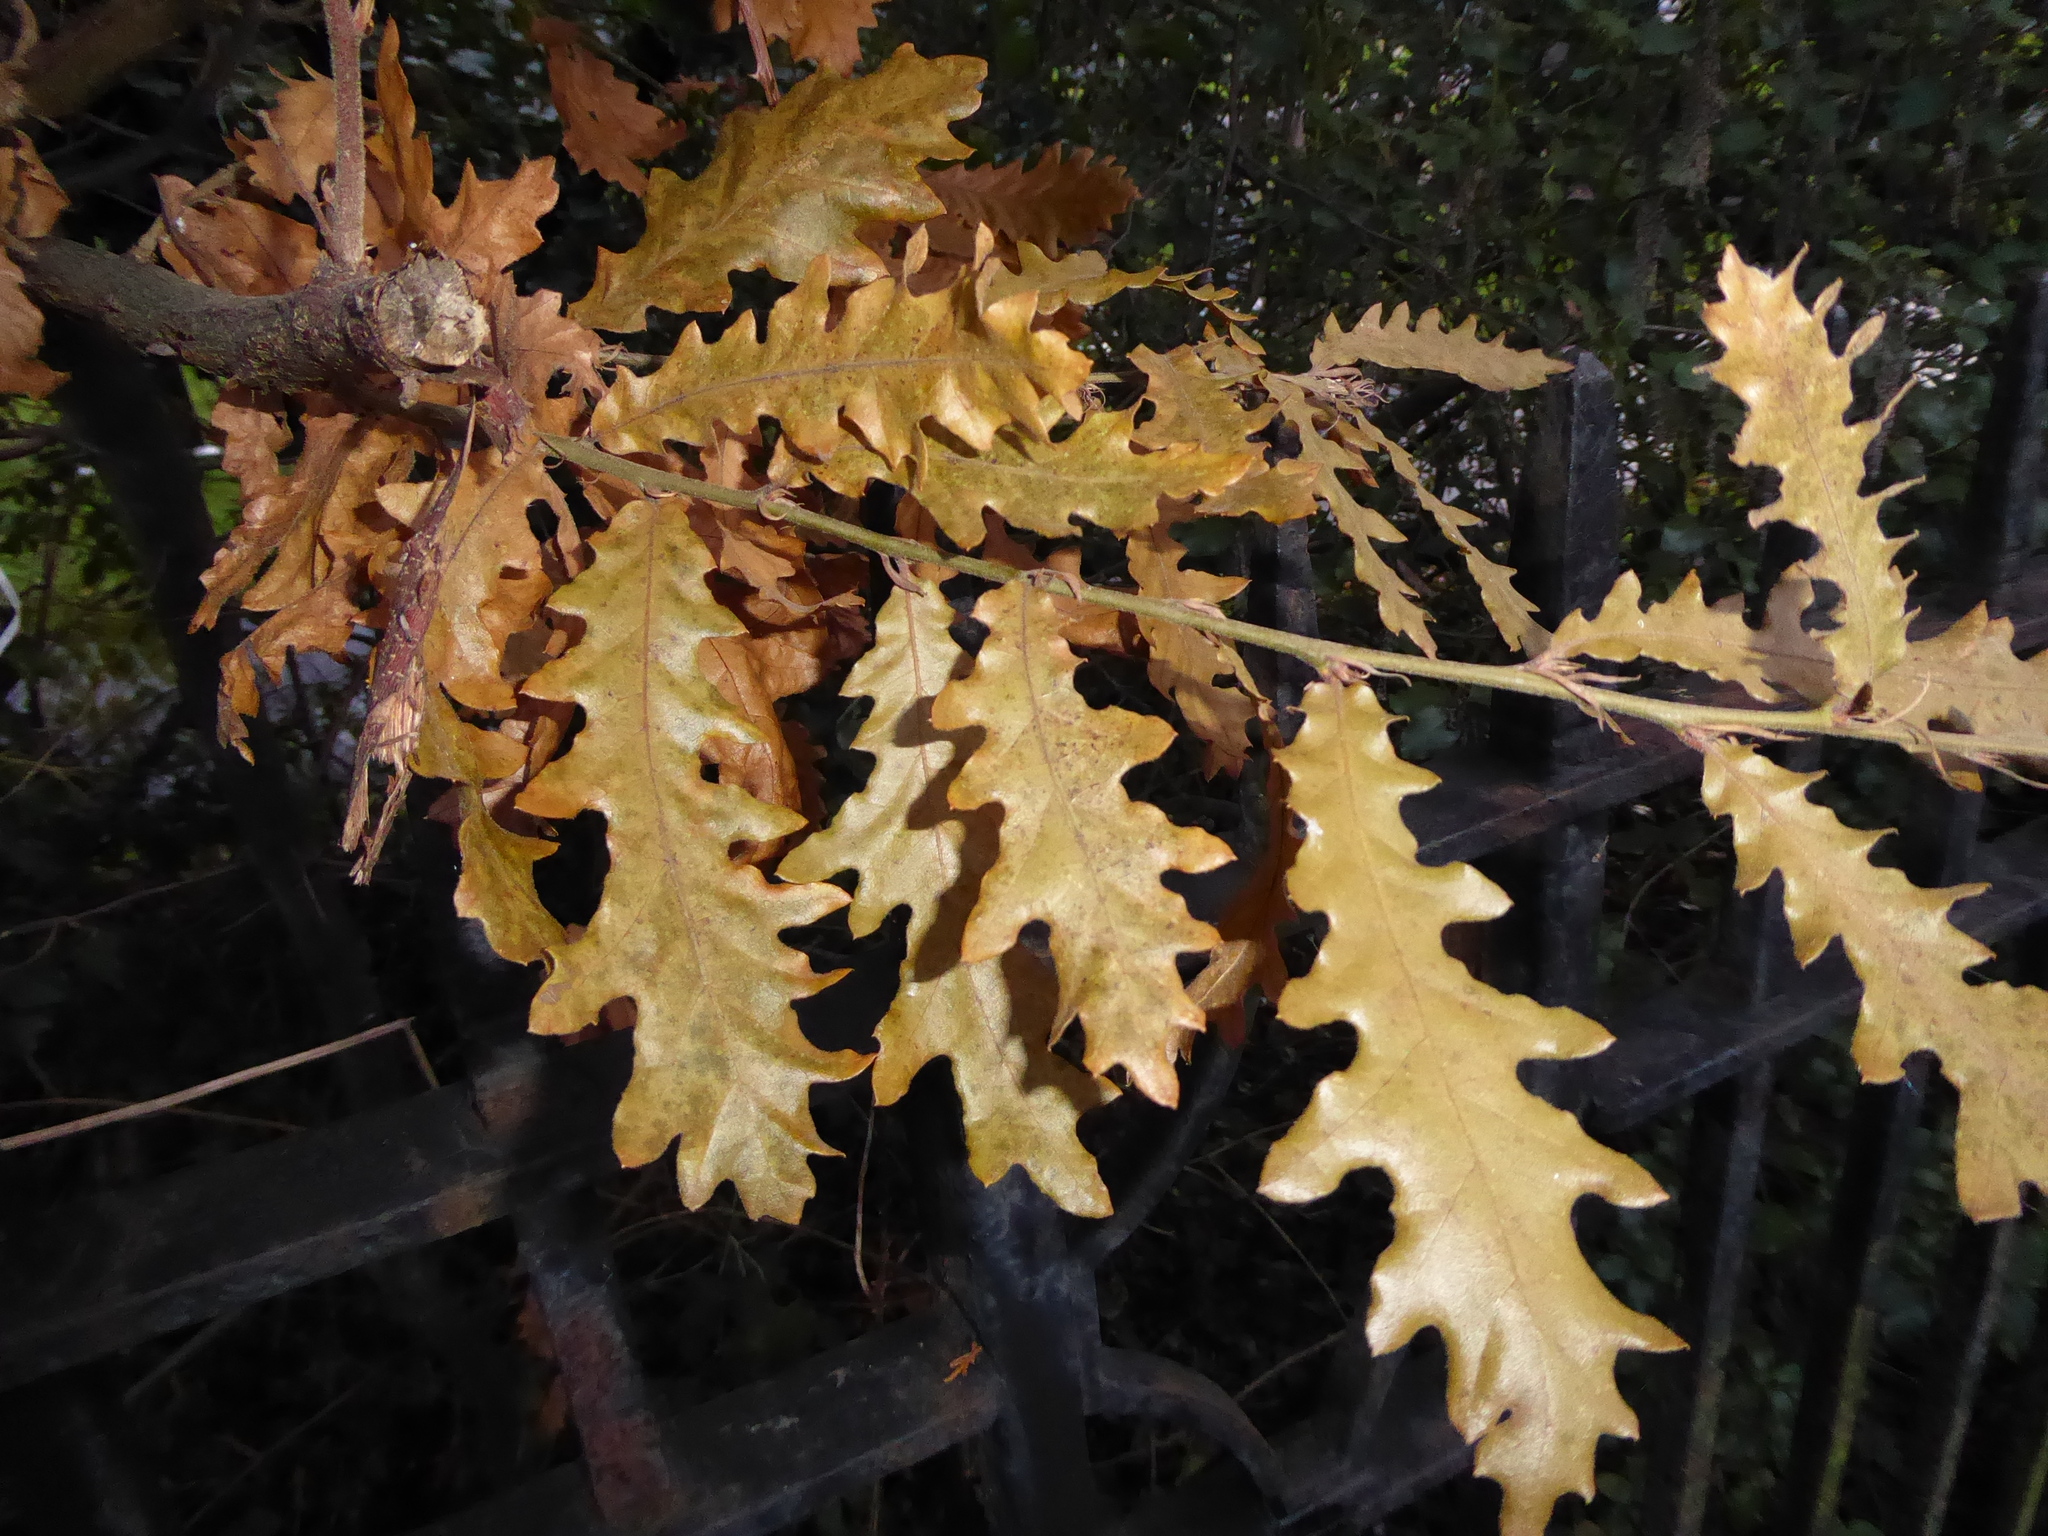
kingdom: Plantae
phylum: Tracheophyta
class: Magnoliopsida
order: Fagales
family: Fagaceae
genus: Quercus
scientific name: Quercus cerris
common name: Turkey oak
